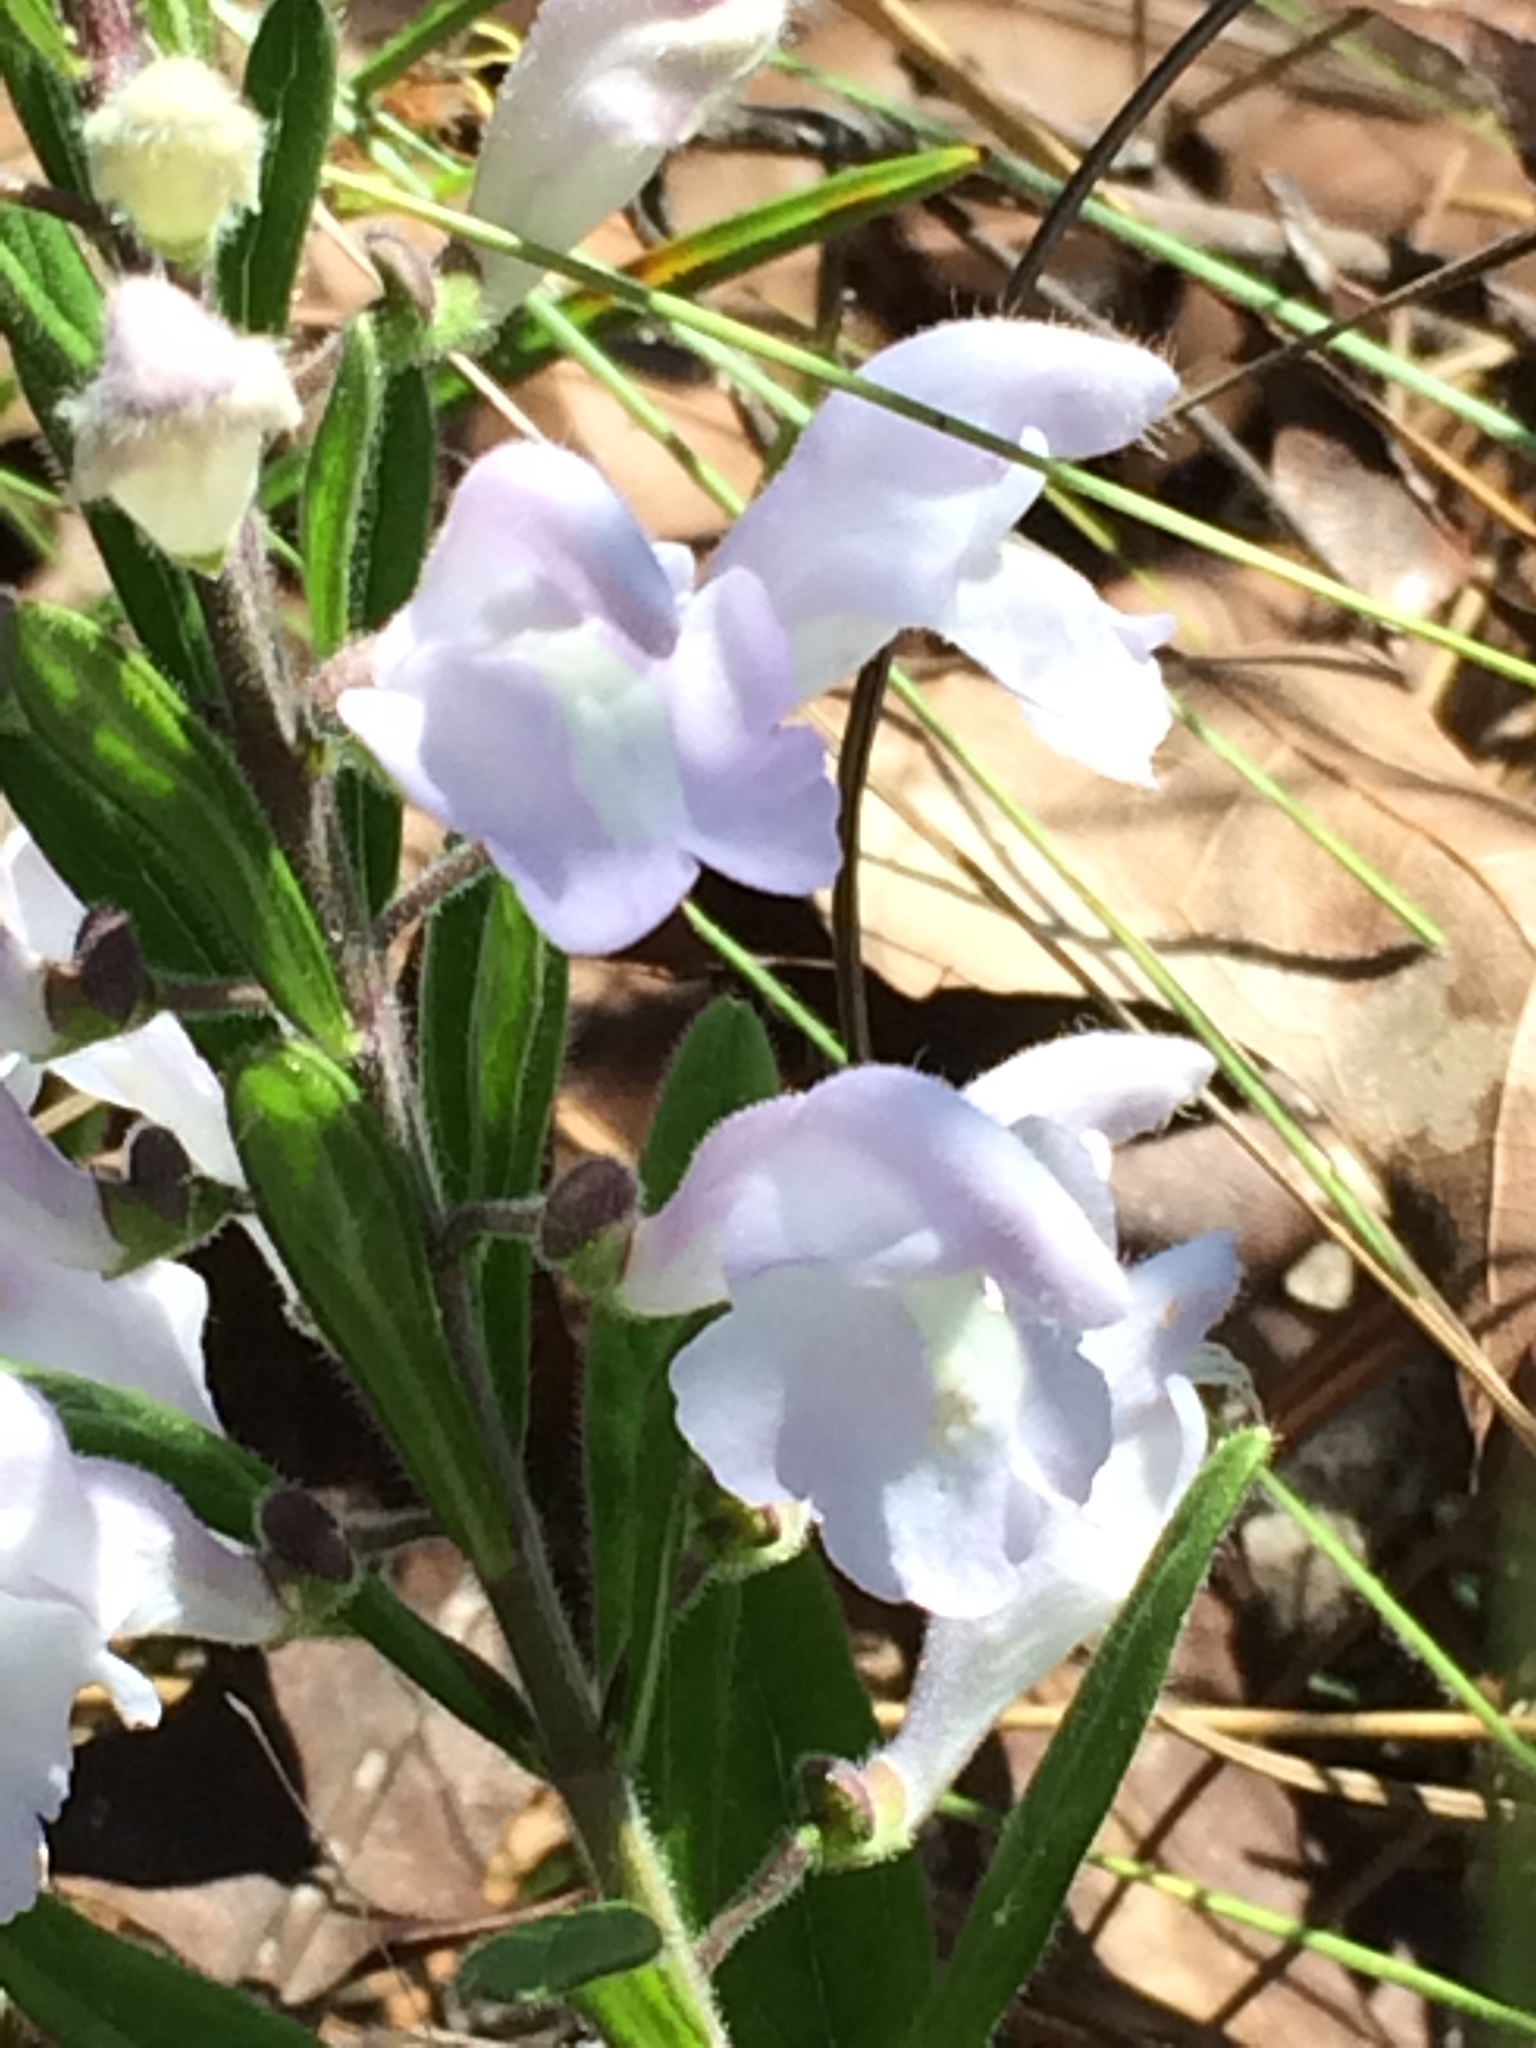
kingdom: Plantae
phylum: Tracheophyta
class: Magnoliopsida
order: Lamiales
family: Lamiaceae
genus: Scutellaria
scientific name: Scutellaria multiglandulosa
